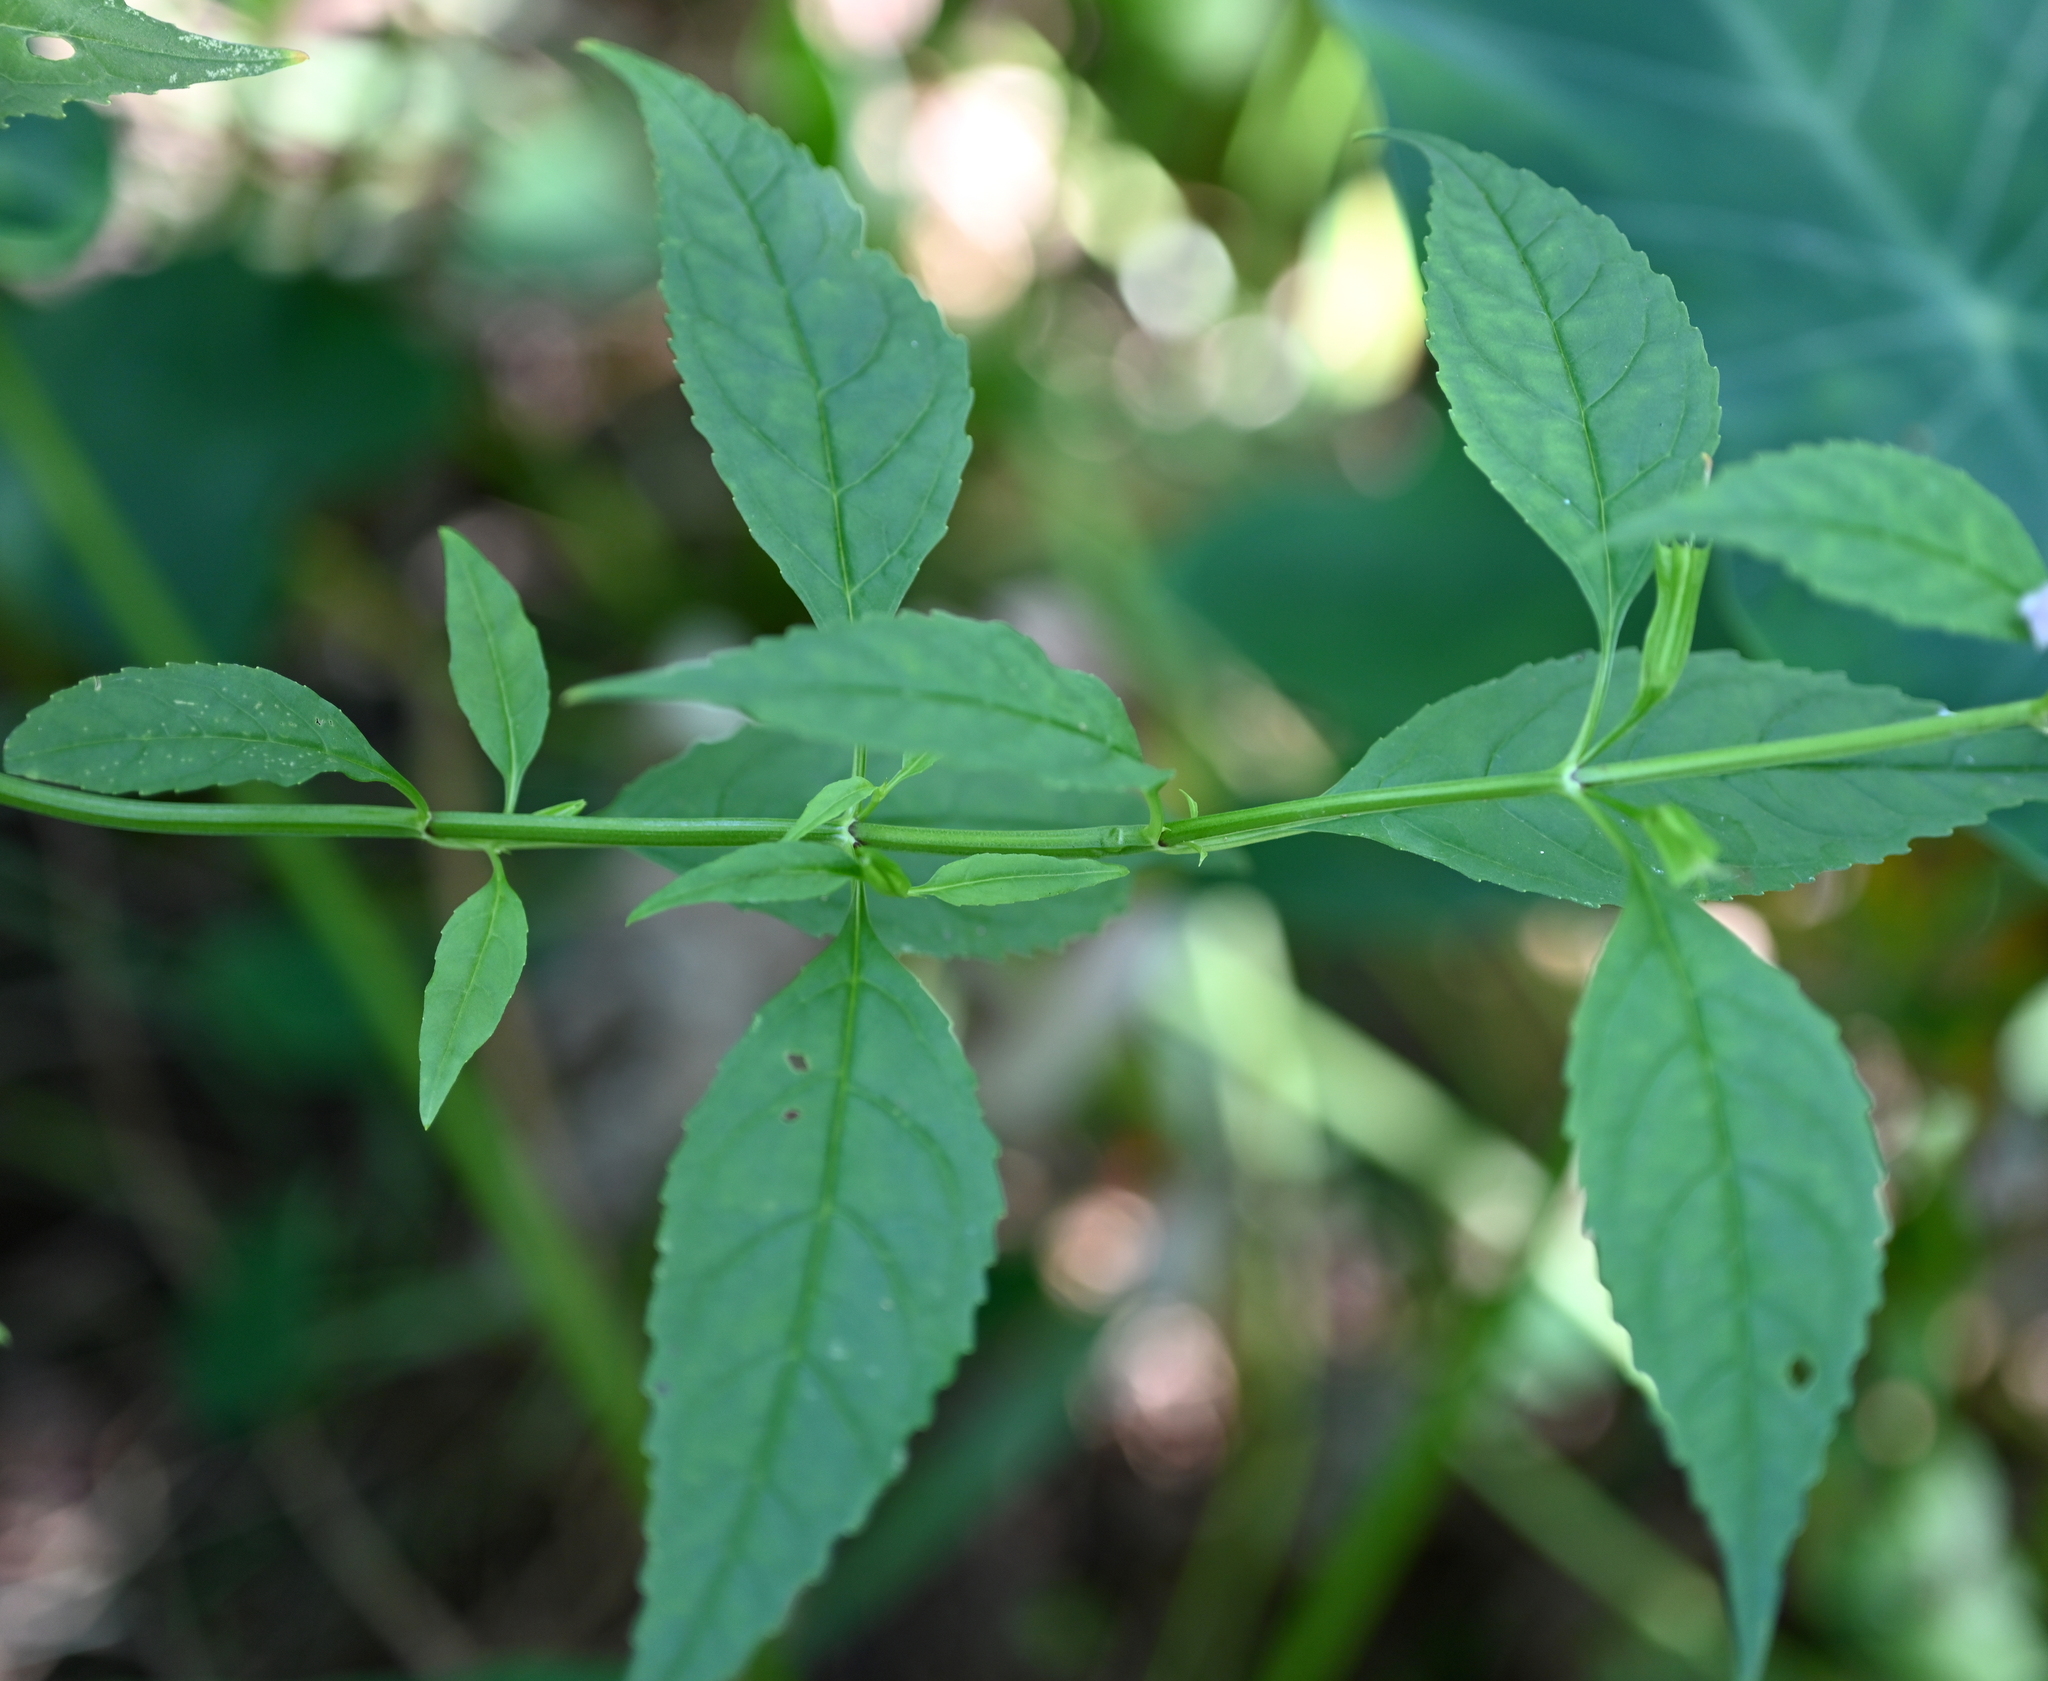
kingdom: Plantae
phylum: Tracheophyta
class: Magnoliopsida
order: Lamiales
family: Phrymaceae
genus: Mimulus
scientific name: Mimulus alatus
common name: Sharp-wing monkey-flower
